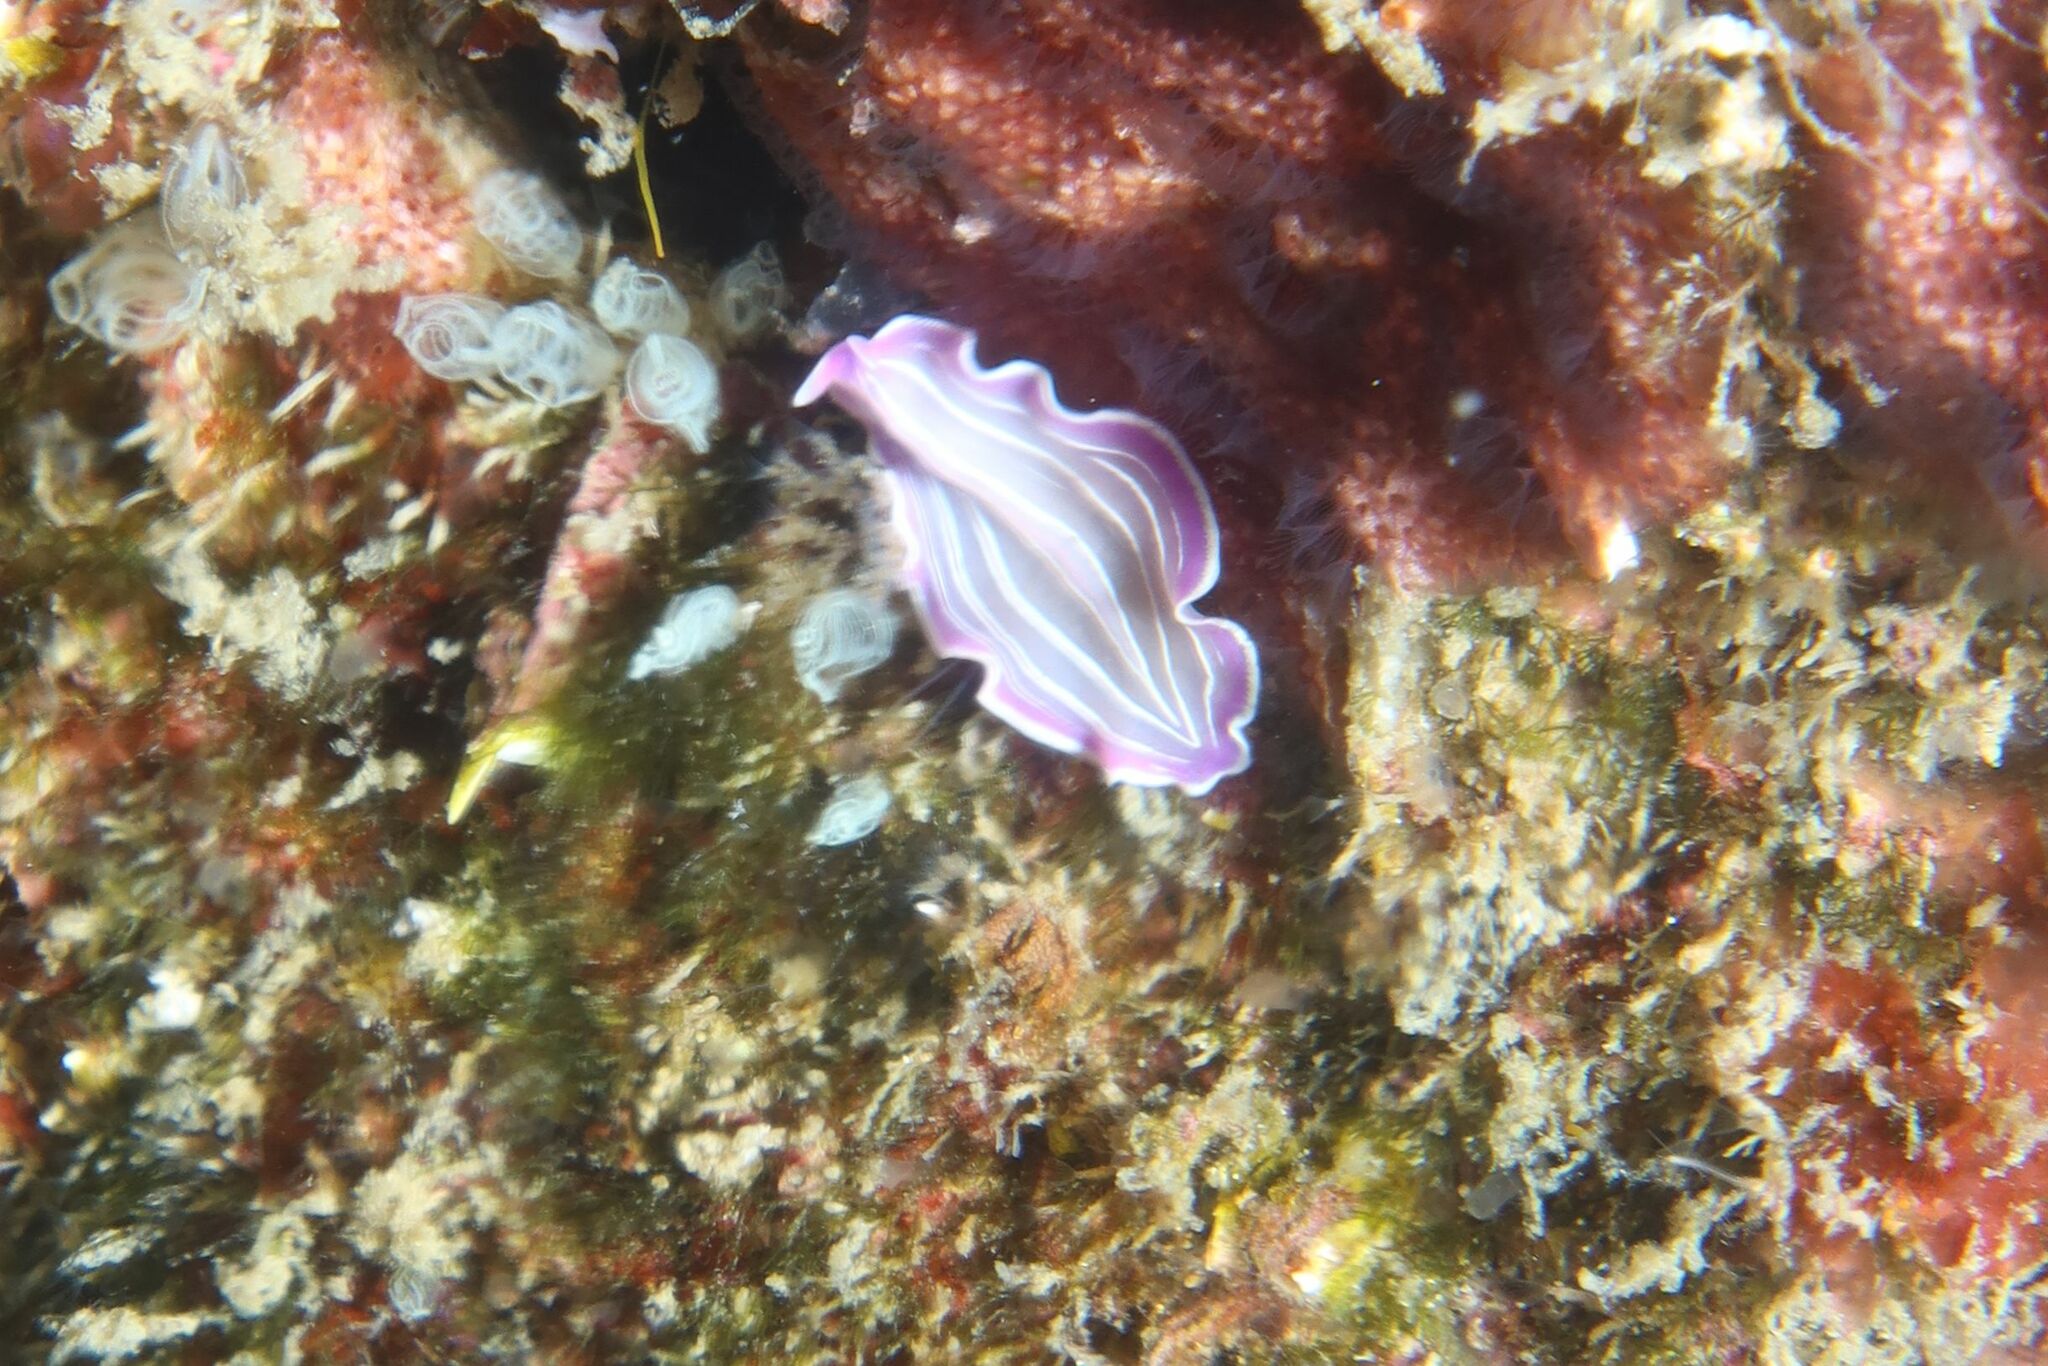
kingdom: Animalia
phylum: Platyhelminthes
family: Euryleptidae
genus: Prostheceraeus
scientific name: Prostheceraeus roseus
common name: Pink flatworm
